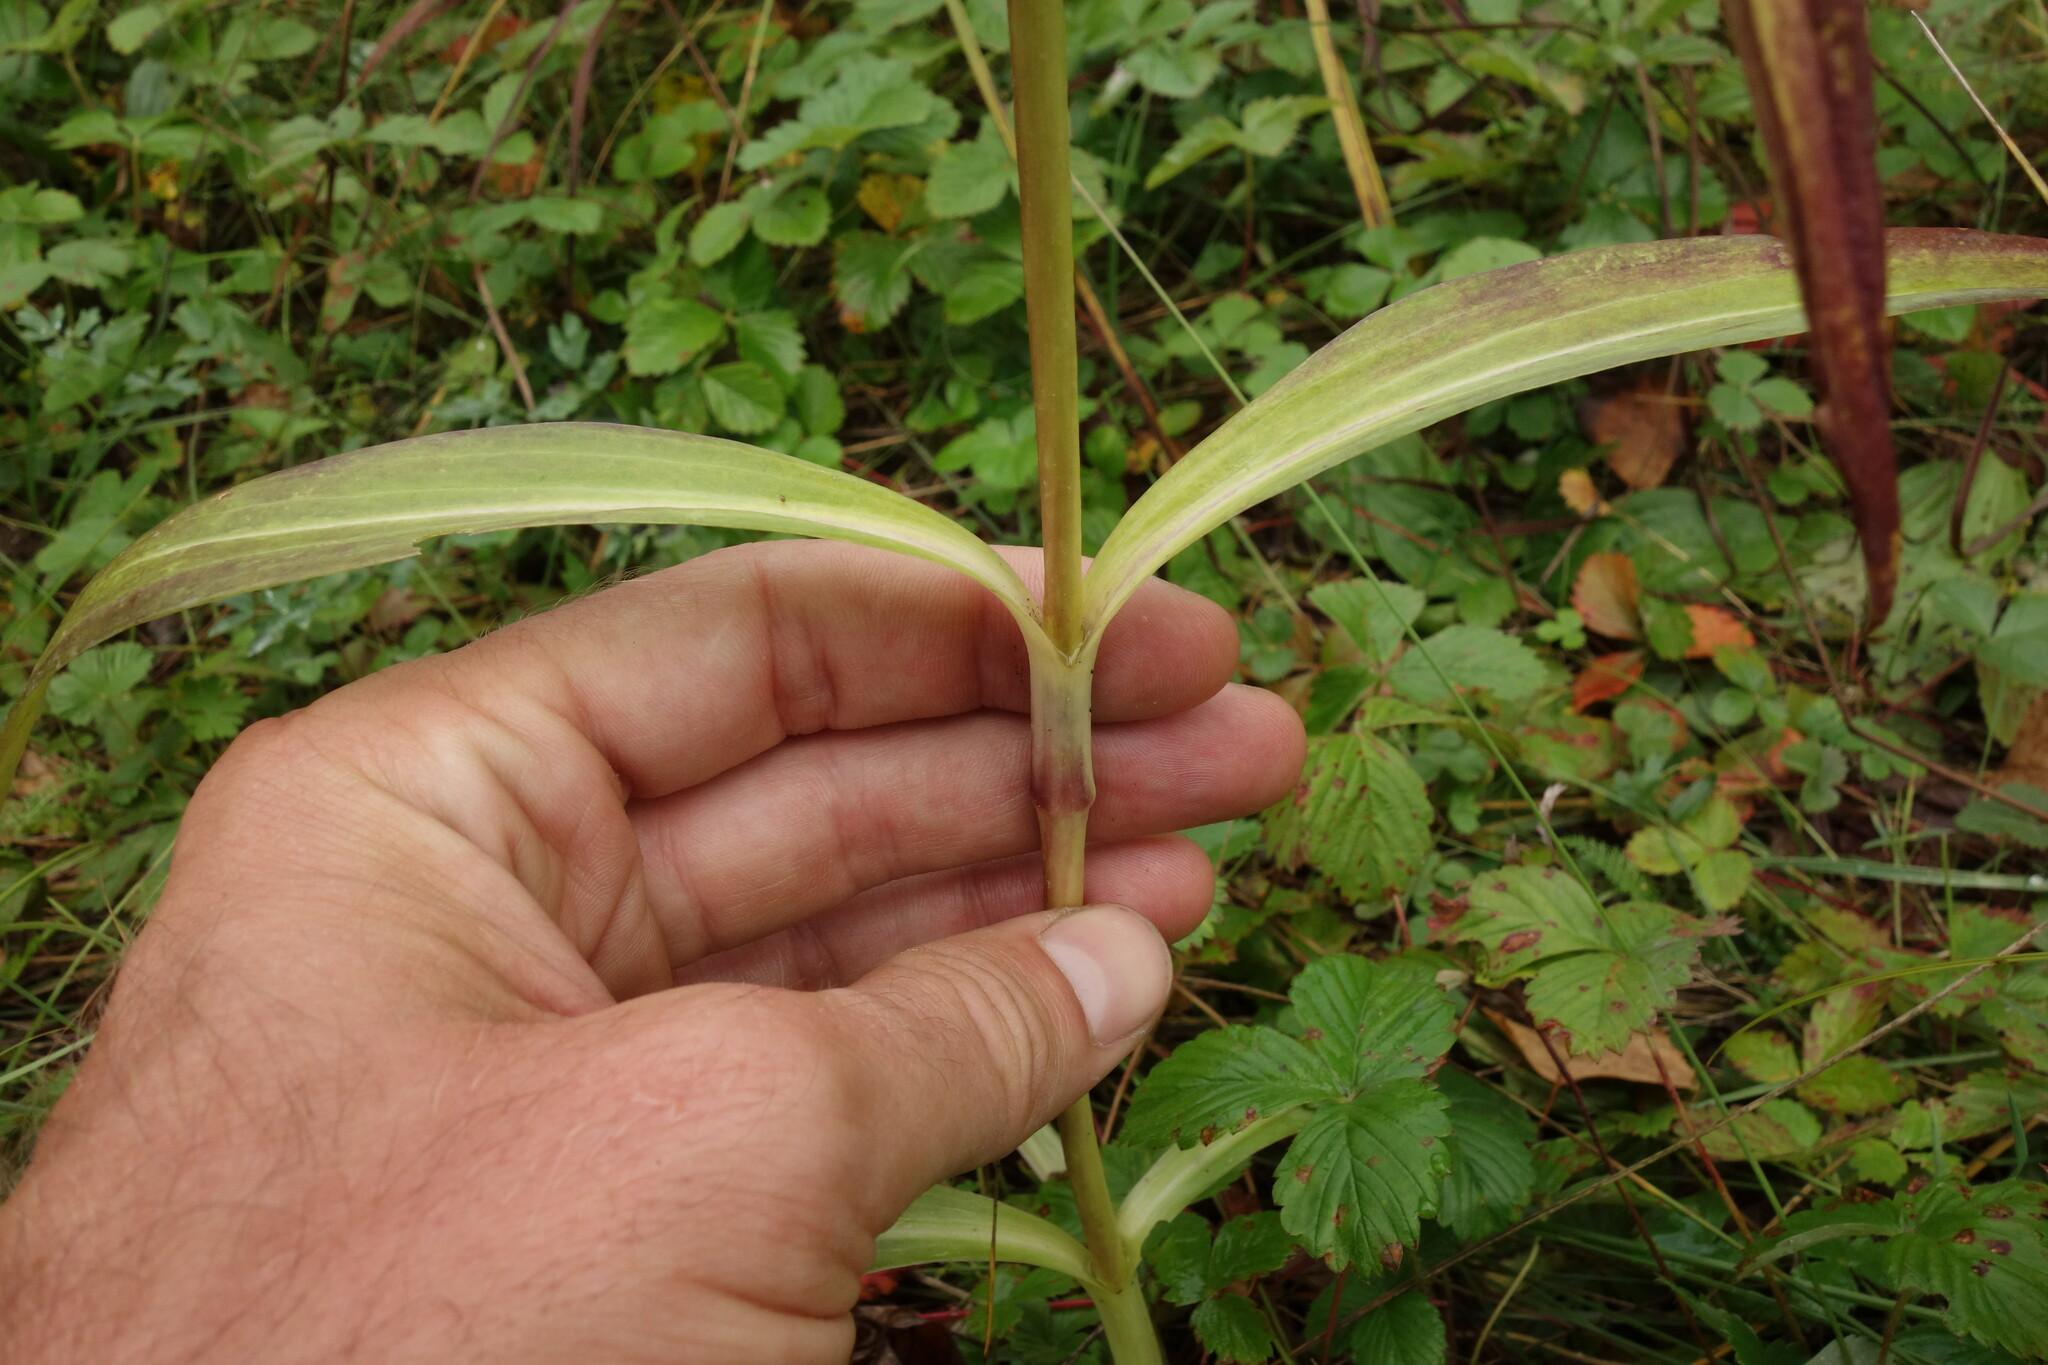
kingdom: Plantae
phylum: Tracheophyta
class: Magnoliopsida
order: Gentianales
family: Gentianaceae
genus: Gentiana
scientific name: Gentiana macrophylla
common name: Large-leaf gentian
